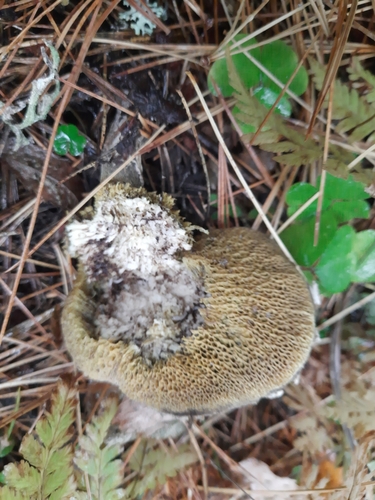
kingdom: Fungi
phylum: Basidiomycota
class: Agaricomycetes
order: Boletales
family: Suillaceae
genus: Suillus
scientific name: Suillus
